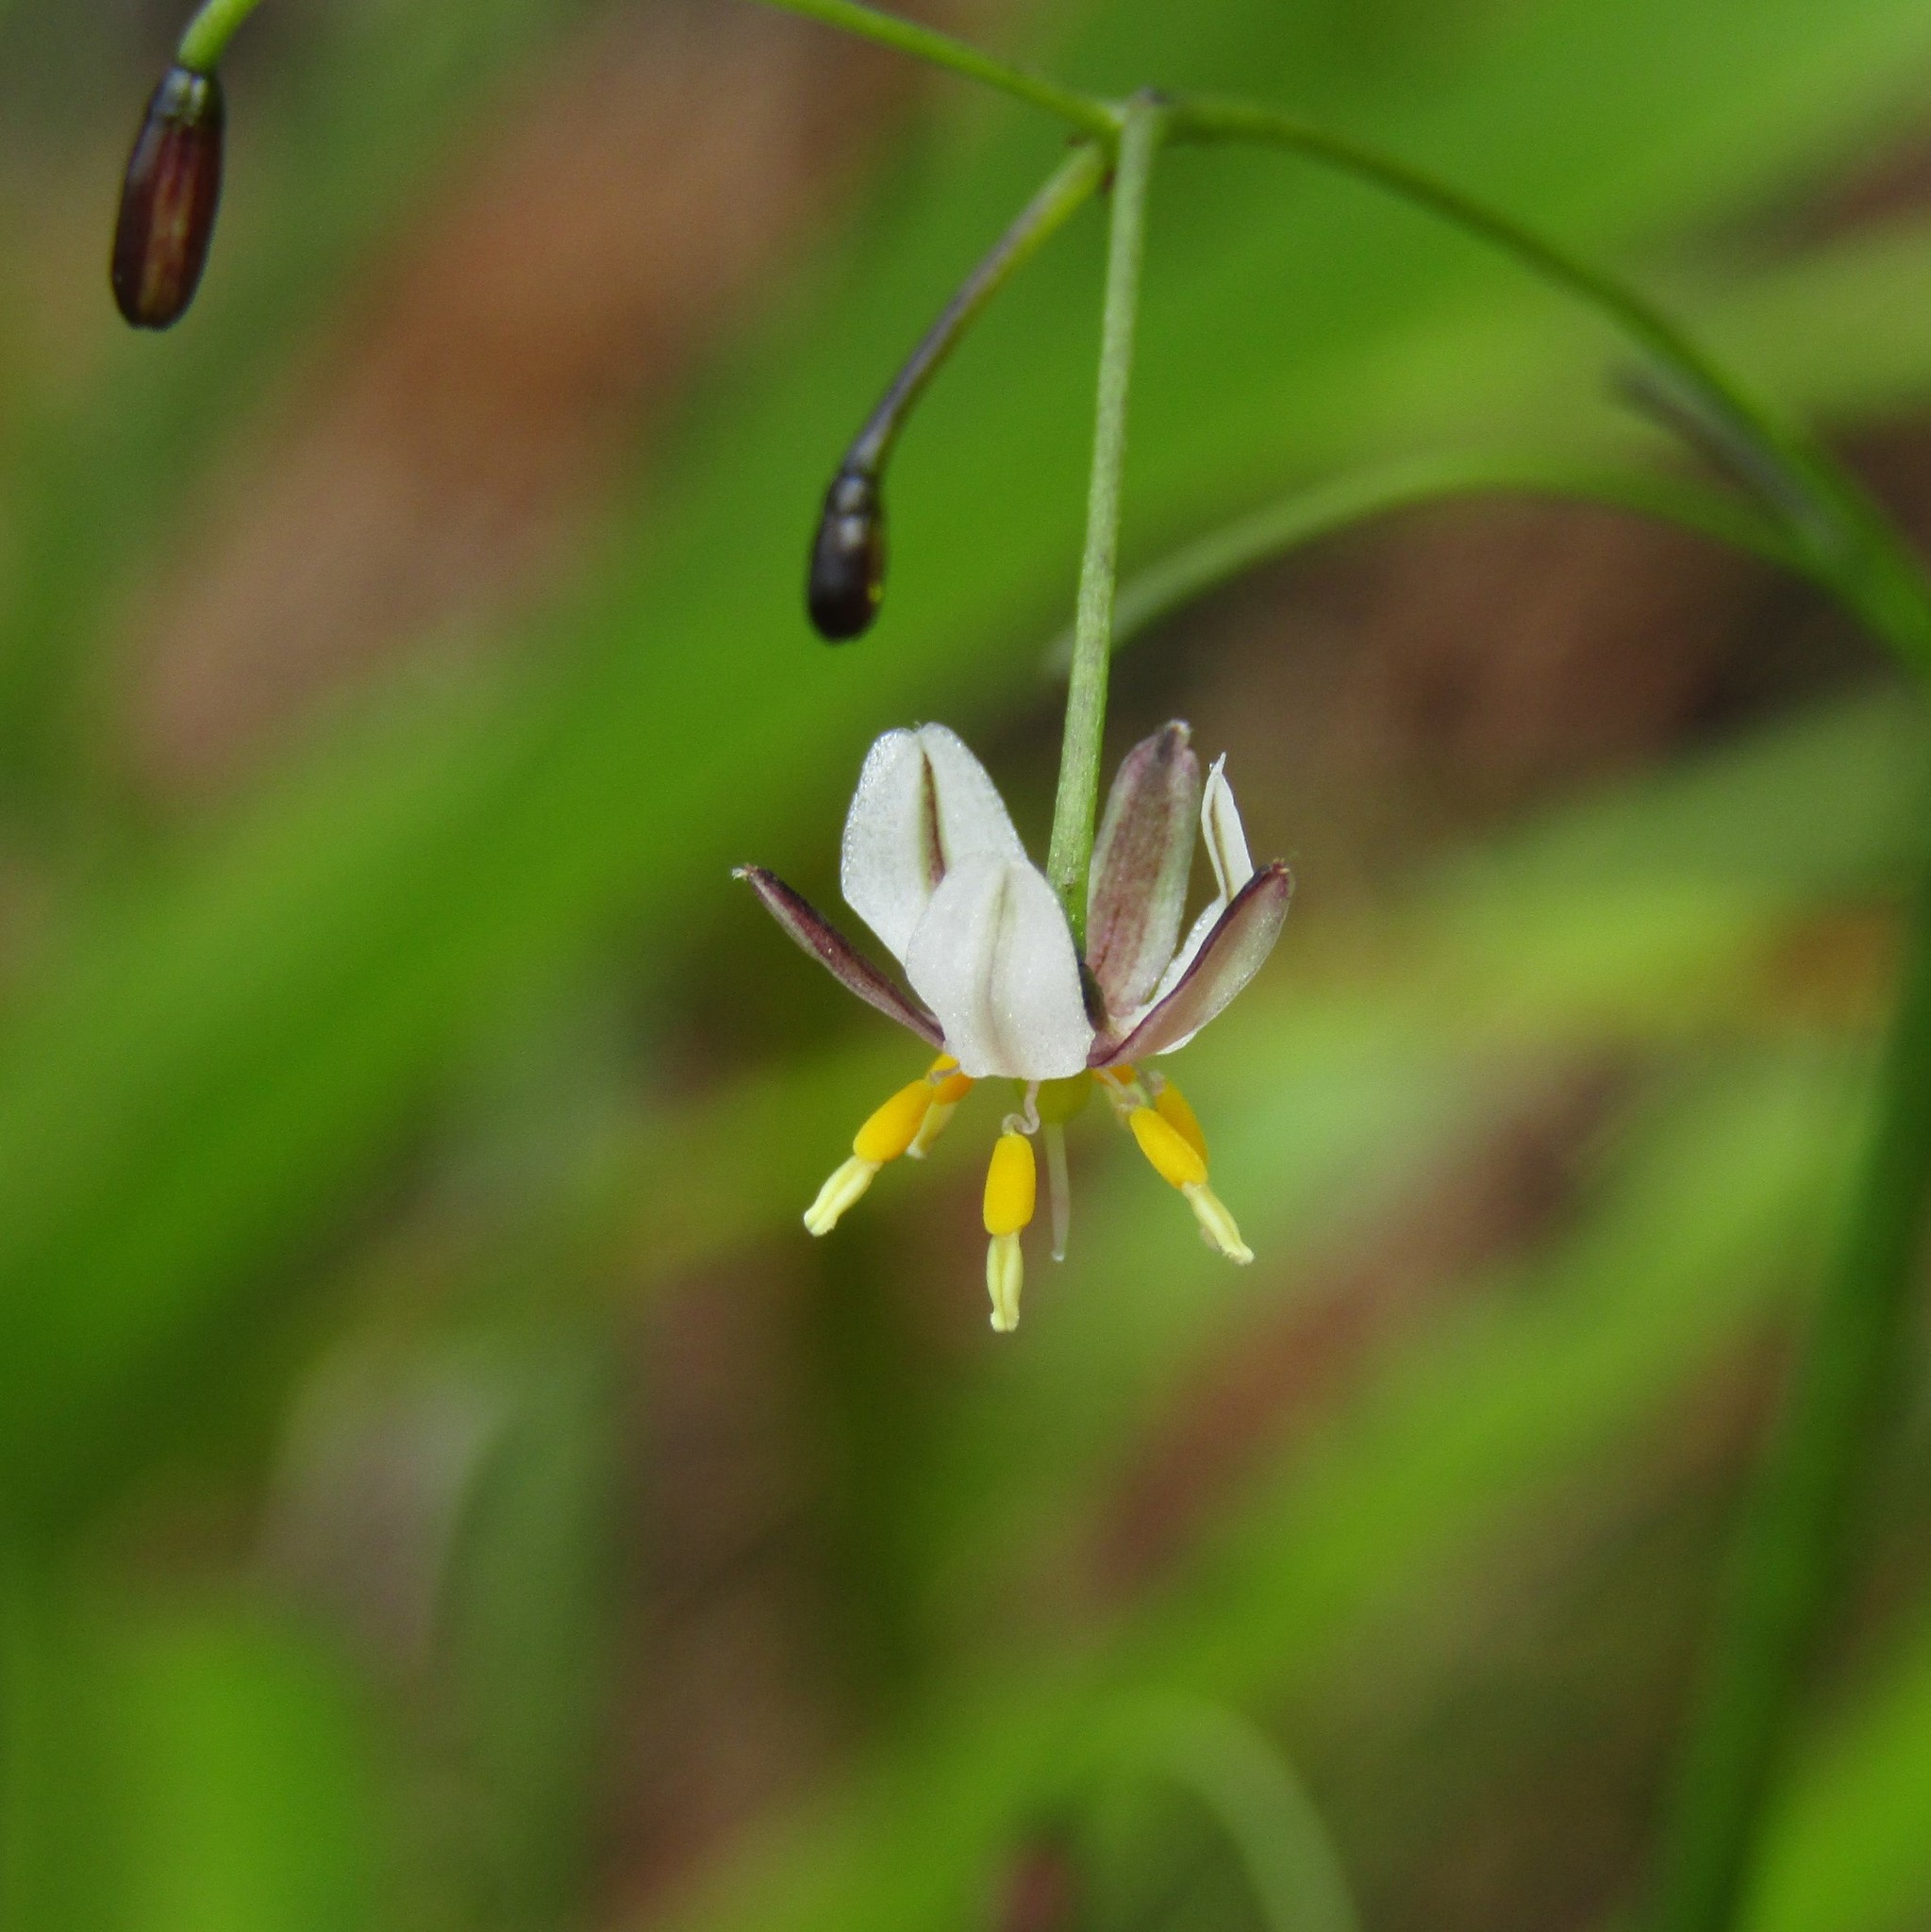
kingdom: Plantae
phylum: Tracheophyta
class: Liliopsida
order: Asparagales
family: Asphodelaceae
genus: Dianella
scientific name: Dianella nigra
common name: New zealand-blueberry
